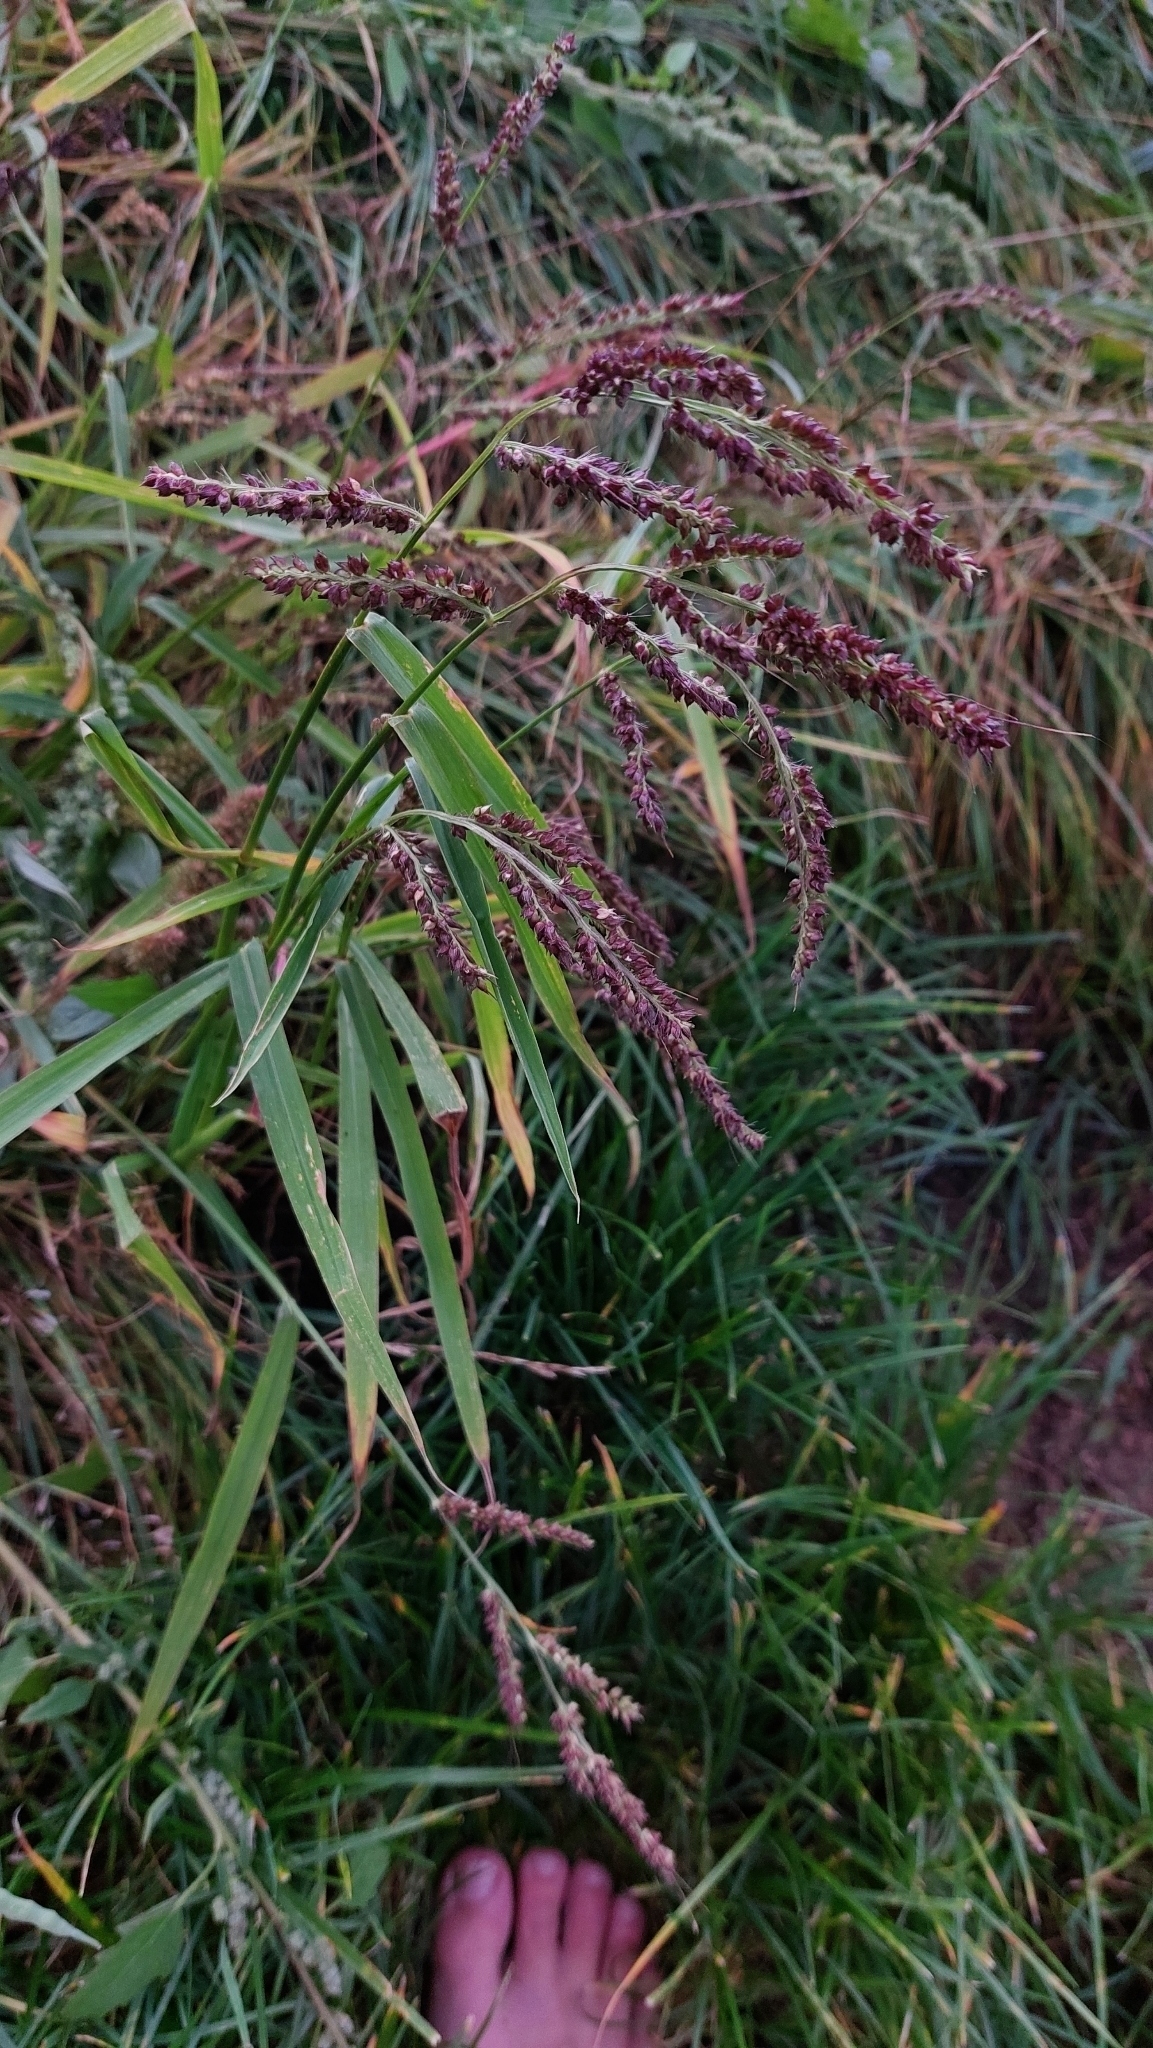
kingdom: Plantae
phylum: Tracheophyta
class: Liliopsida
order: Poales
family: Poaceae
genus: Echinochloa
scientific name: Echinochloa crus-galli
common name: Cockspur
